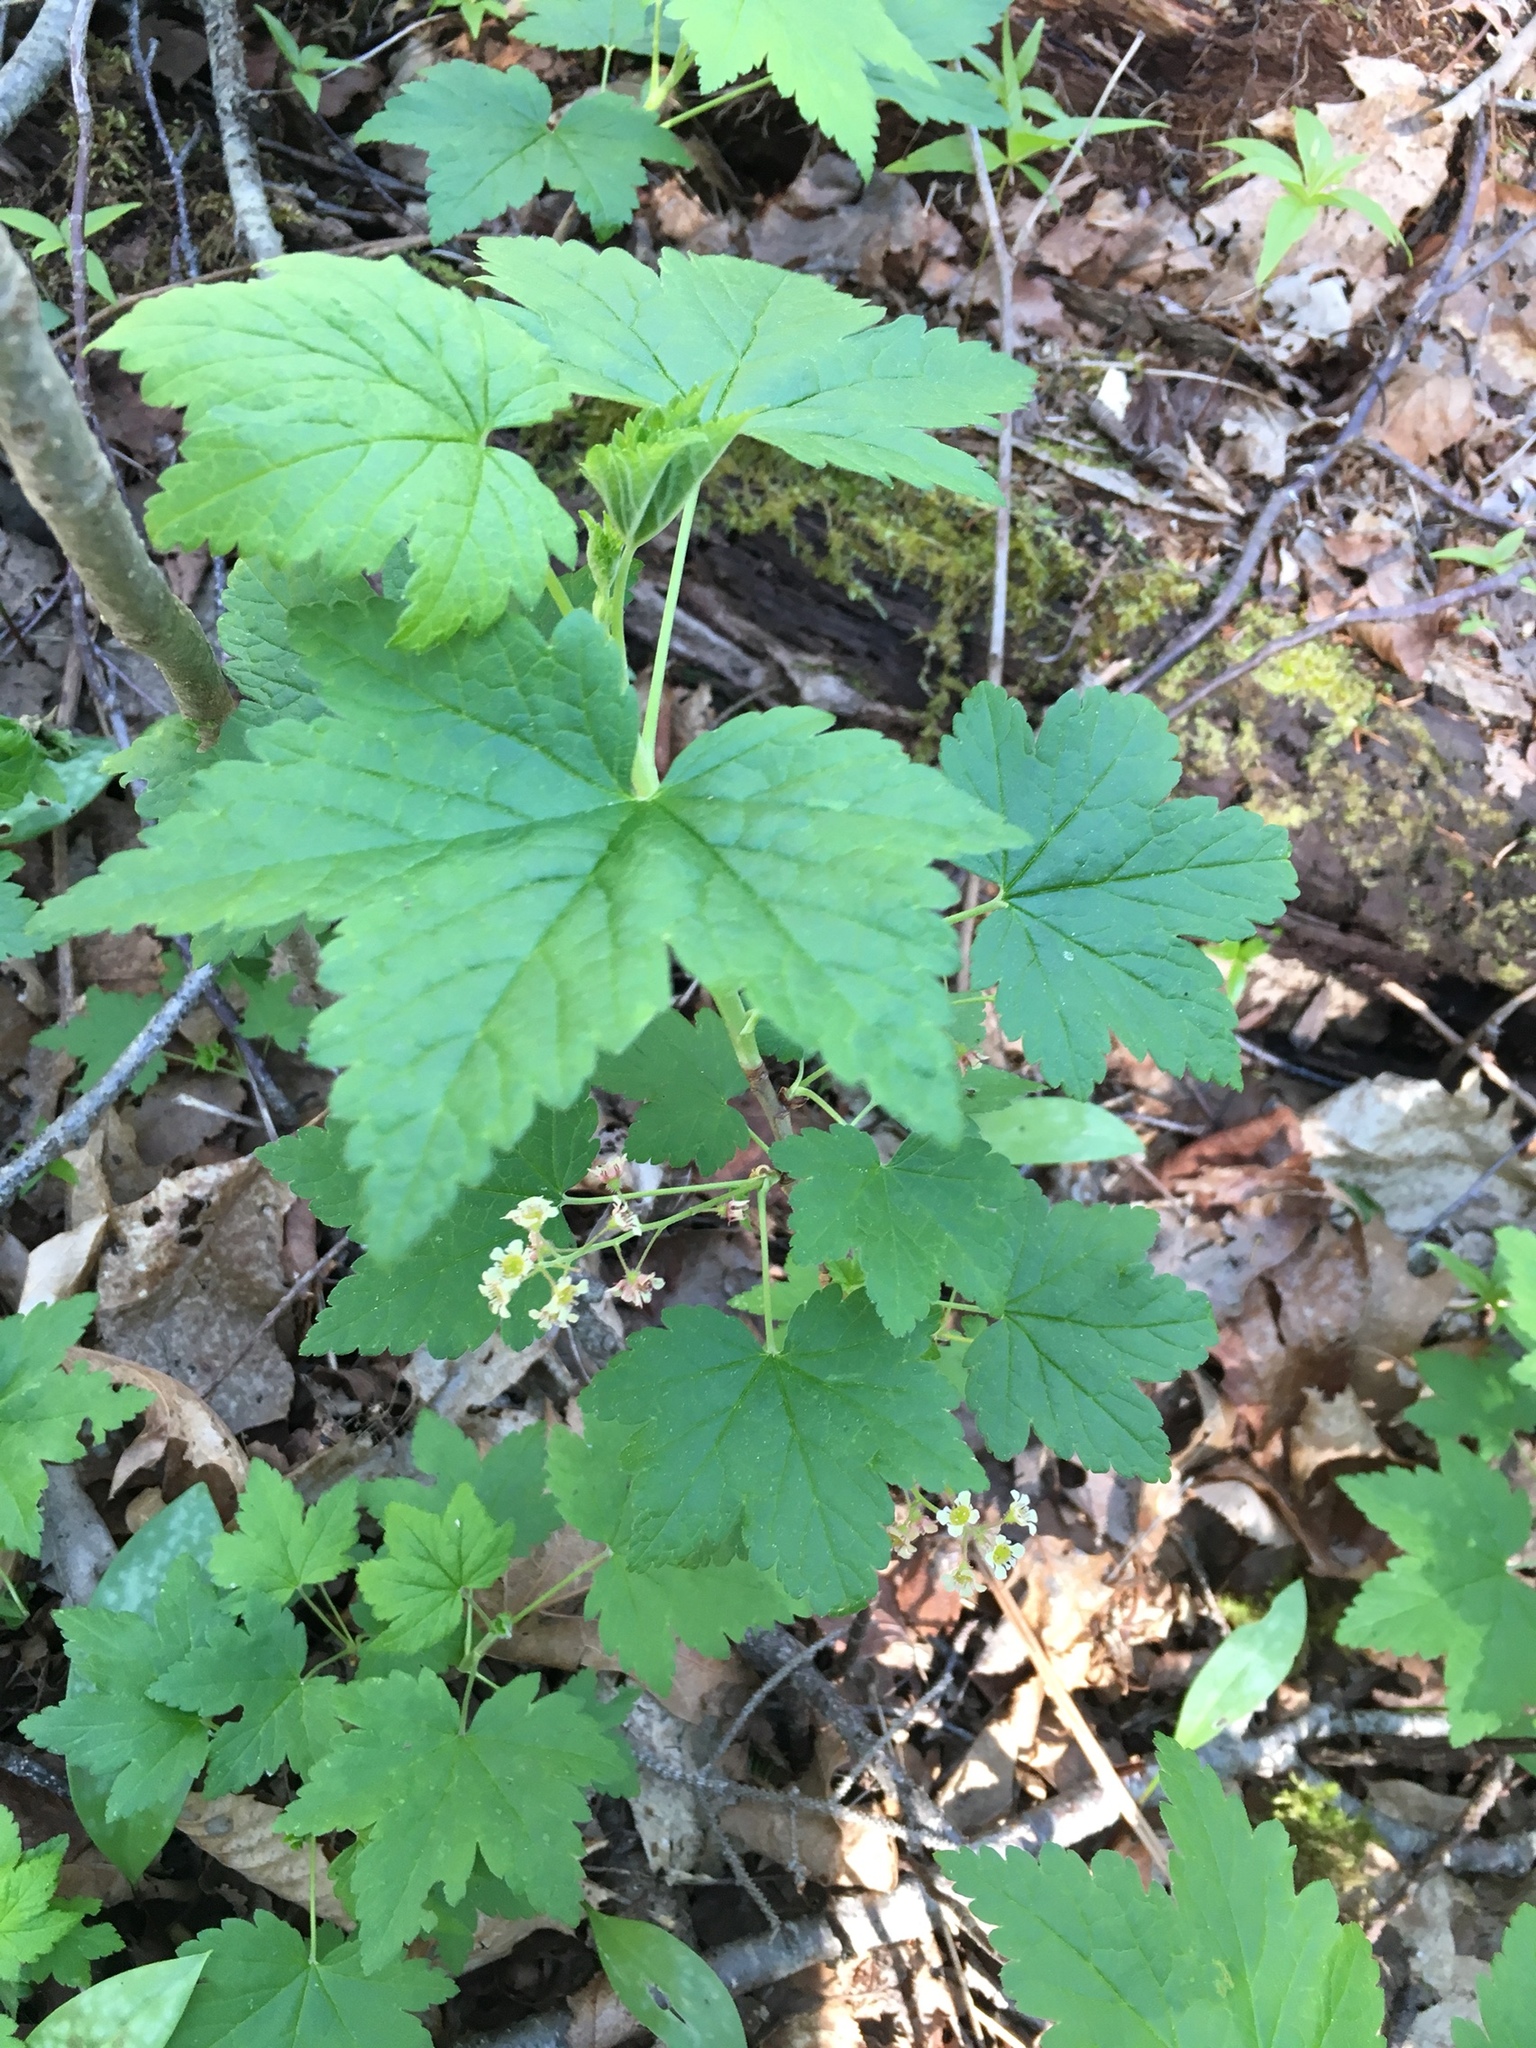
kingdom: Plantae
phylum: Tracheophyta
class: Magnoliopsida
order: Saxifragales
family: Grossulariaceae
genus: Ribes
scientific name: Ribes glandulosum
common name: Skunk currant
